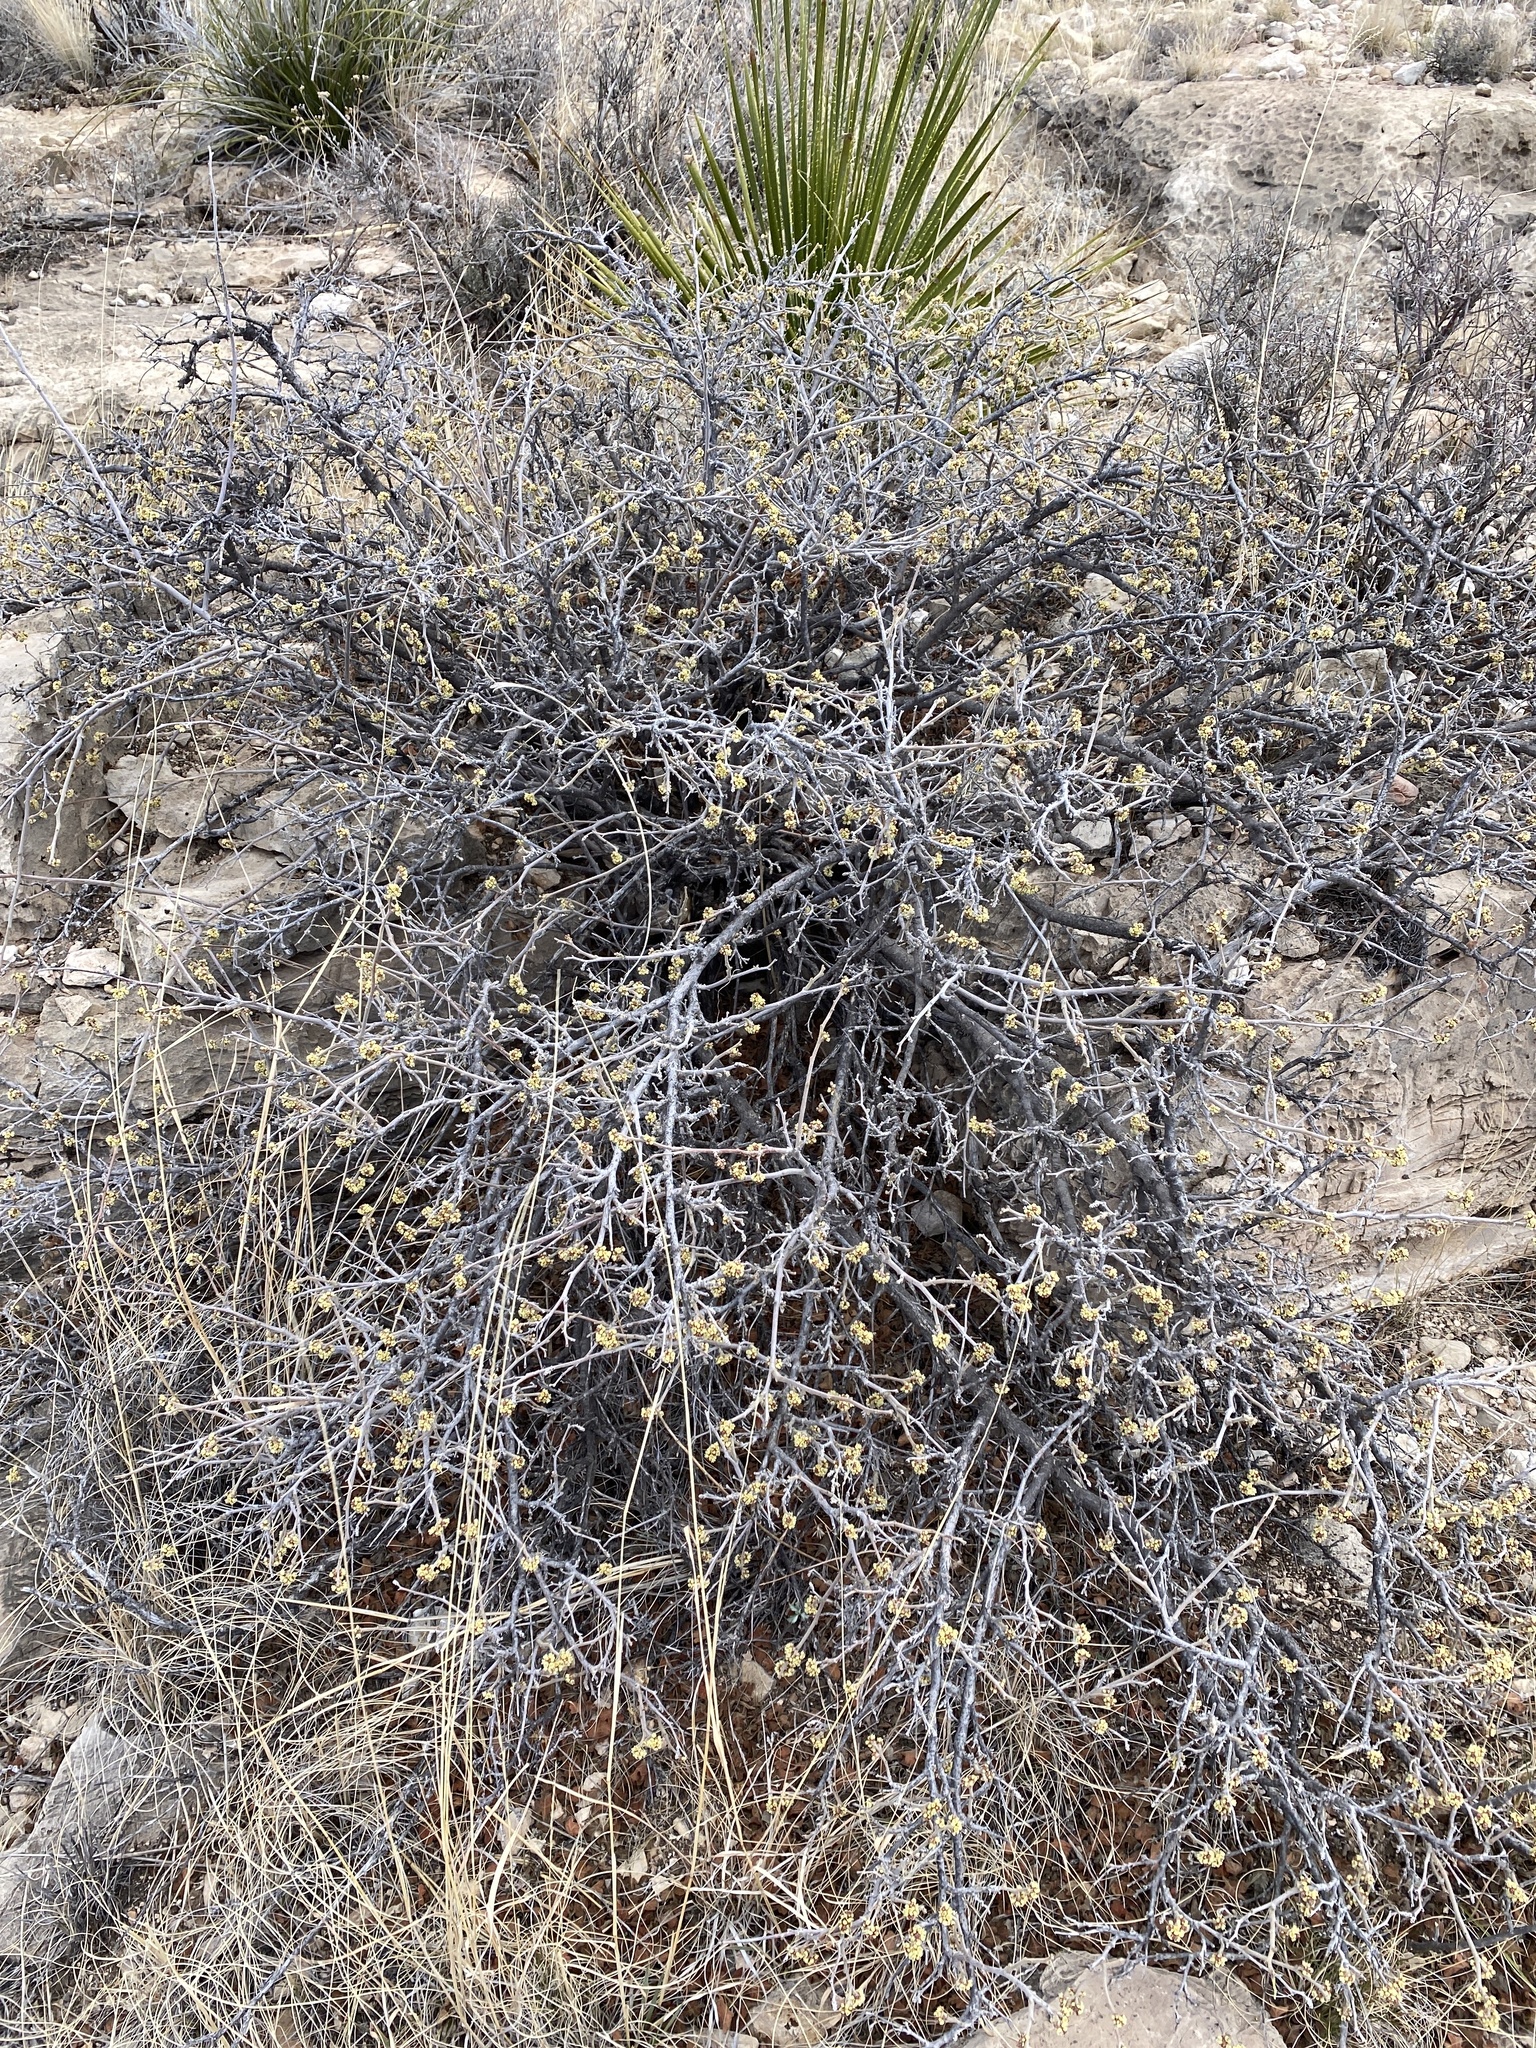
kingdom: Plantae
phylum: Tracheophyta
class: Magnoliopsida
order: Sapindales
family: Anacardiaceae
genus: Rhus
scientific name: Rhus aromatica
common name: Aromatic sumac
